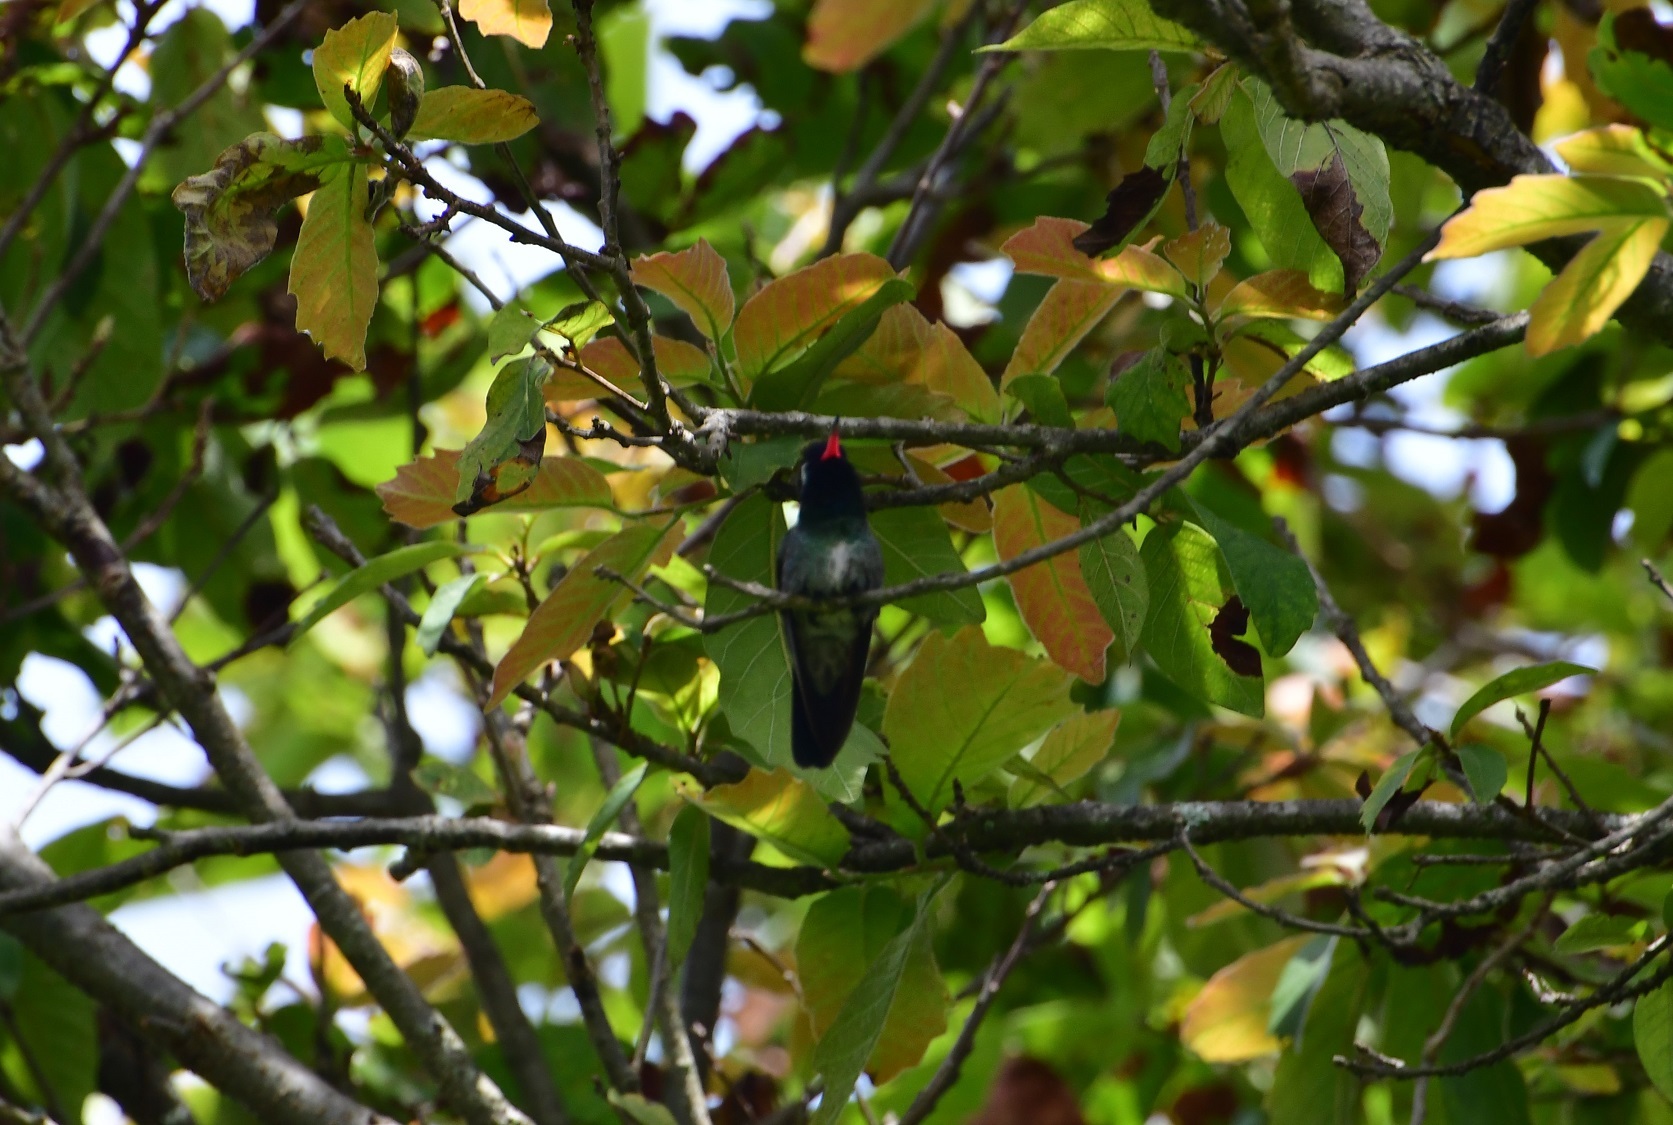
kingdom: Animalia
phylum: Chordata
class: Aves
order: Apodiformes
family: Trochilidae
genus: Basilinna
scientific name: Basilinna leucotis
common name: White-eared hummingbird
